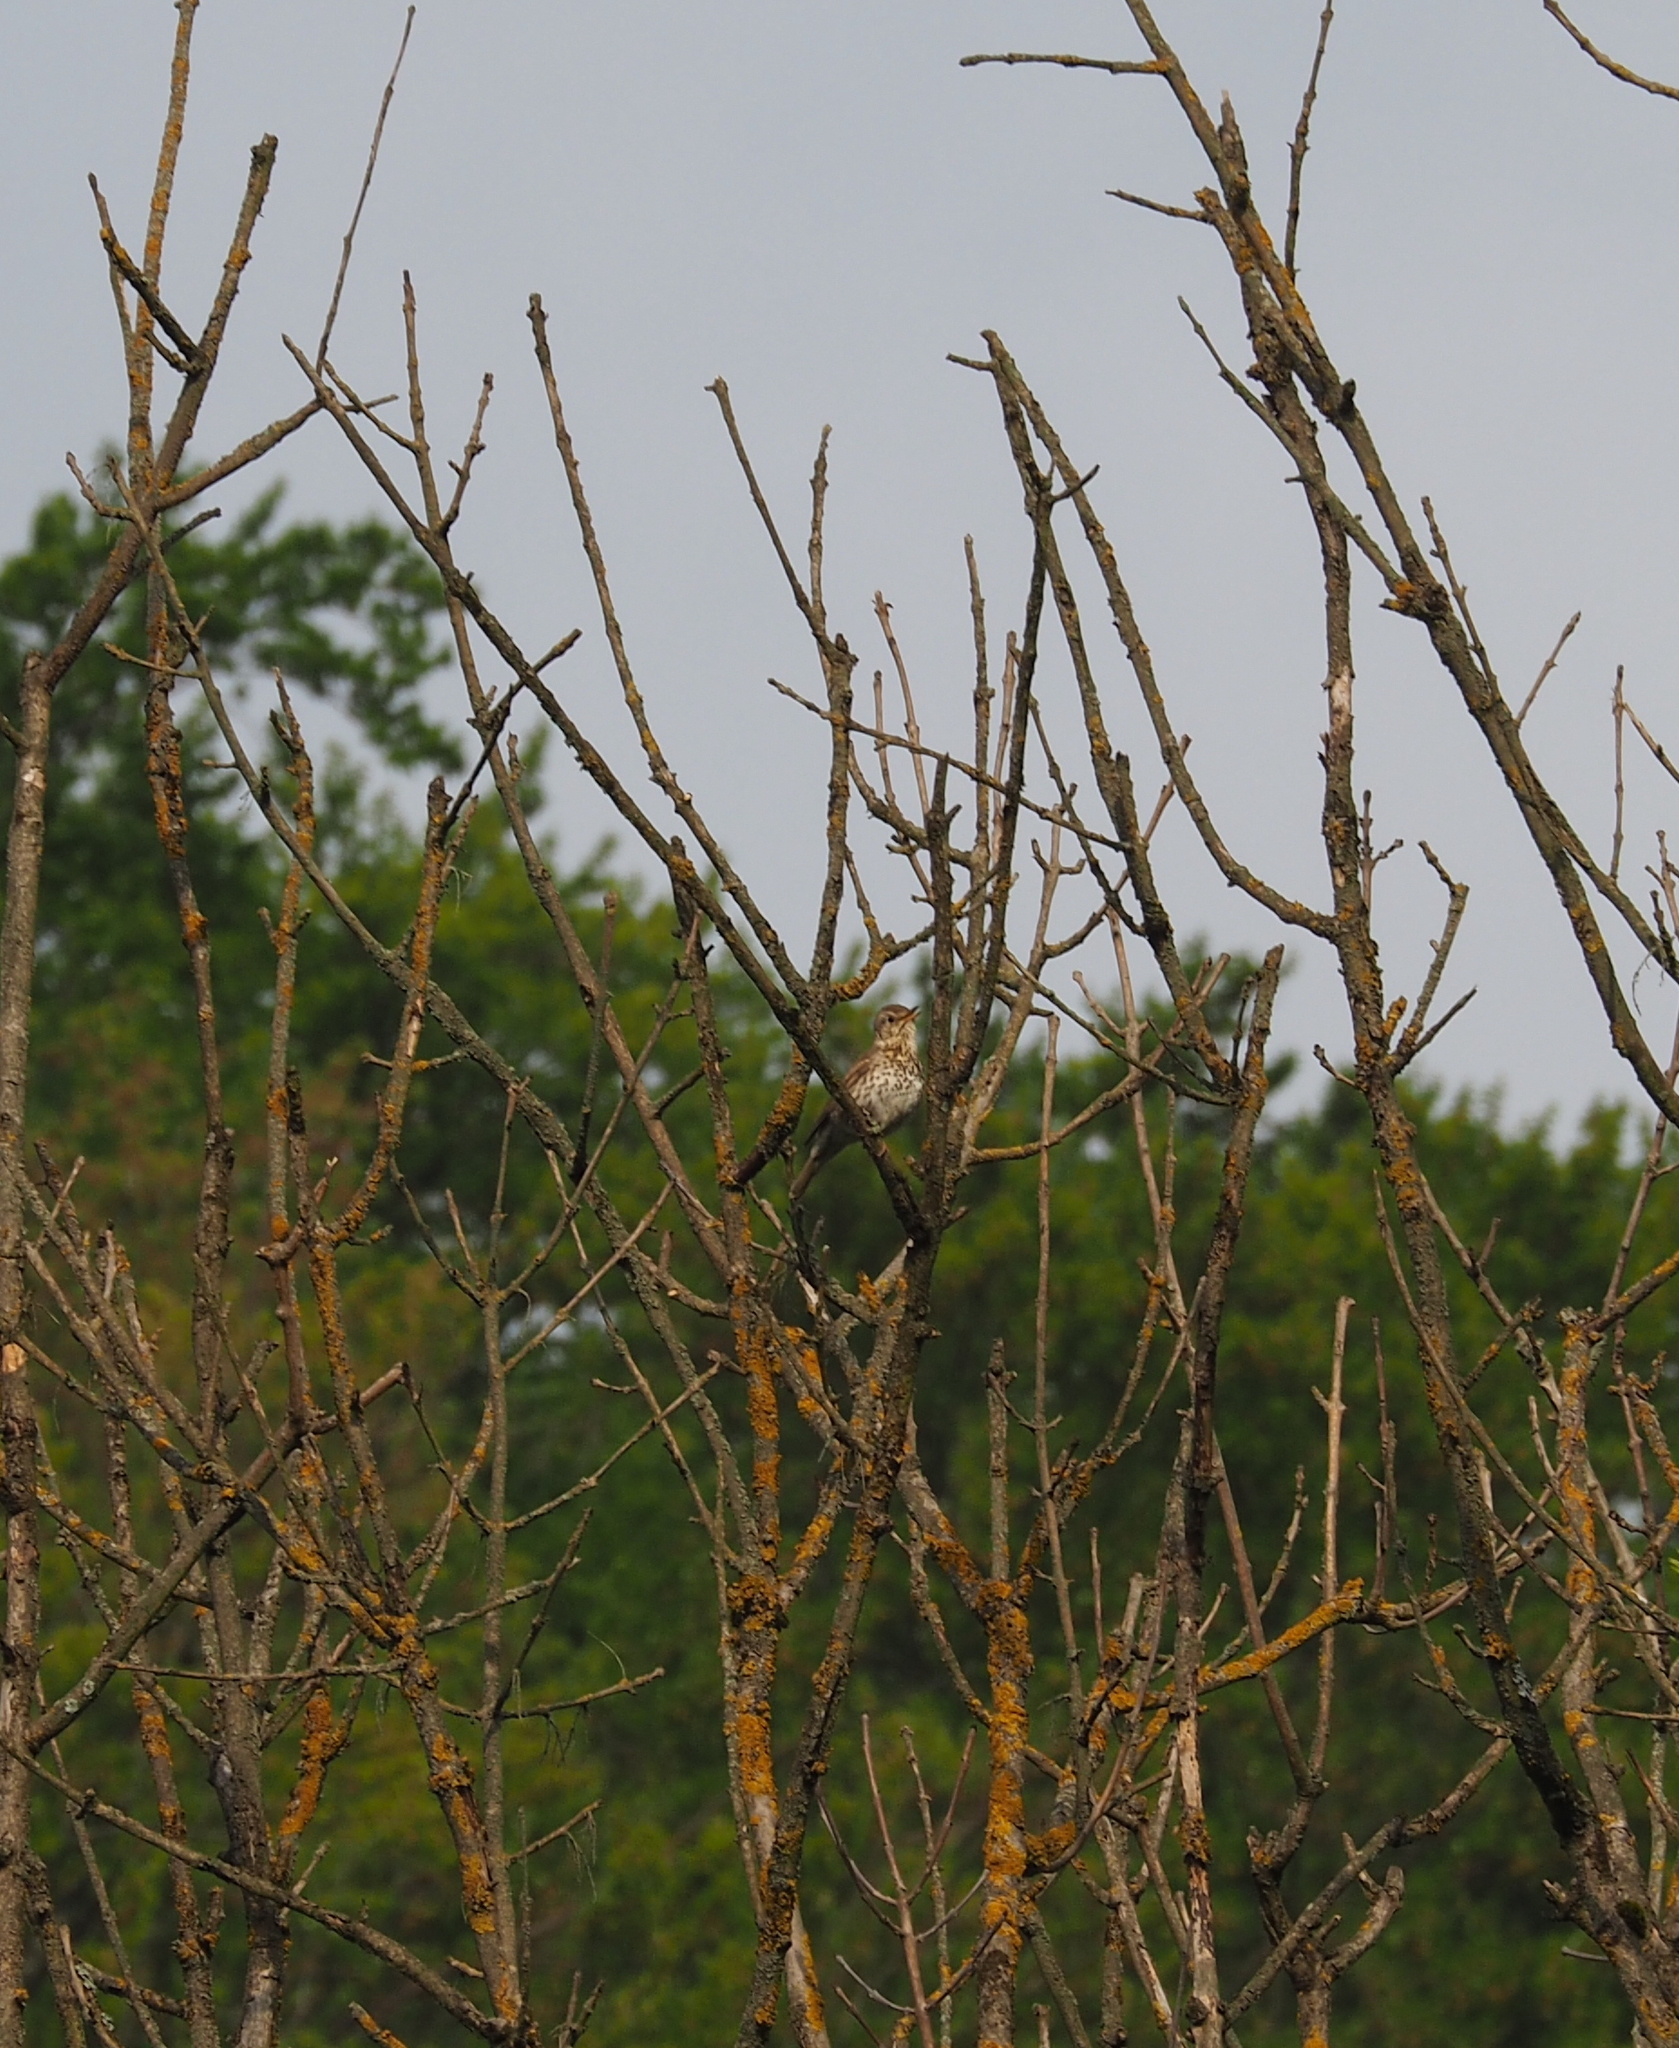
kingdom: Animalia
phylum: Chordata
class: Aves
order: Passeriformes
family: Turdidae
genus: Turdus
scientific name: Turdus philomelos
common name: Song thrush
